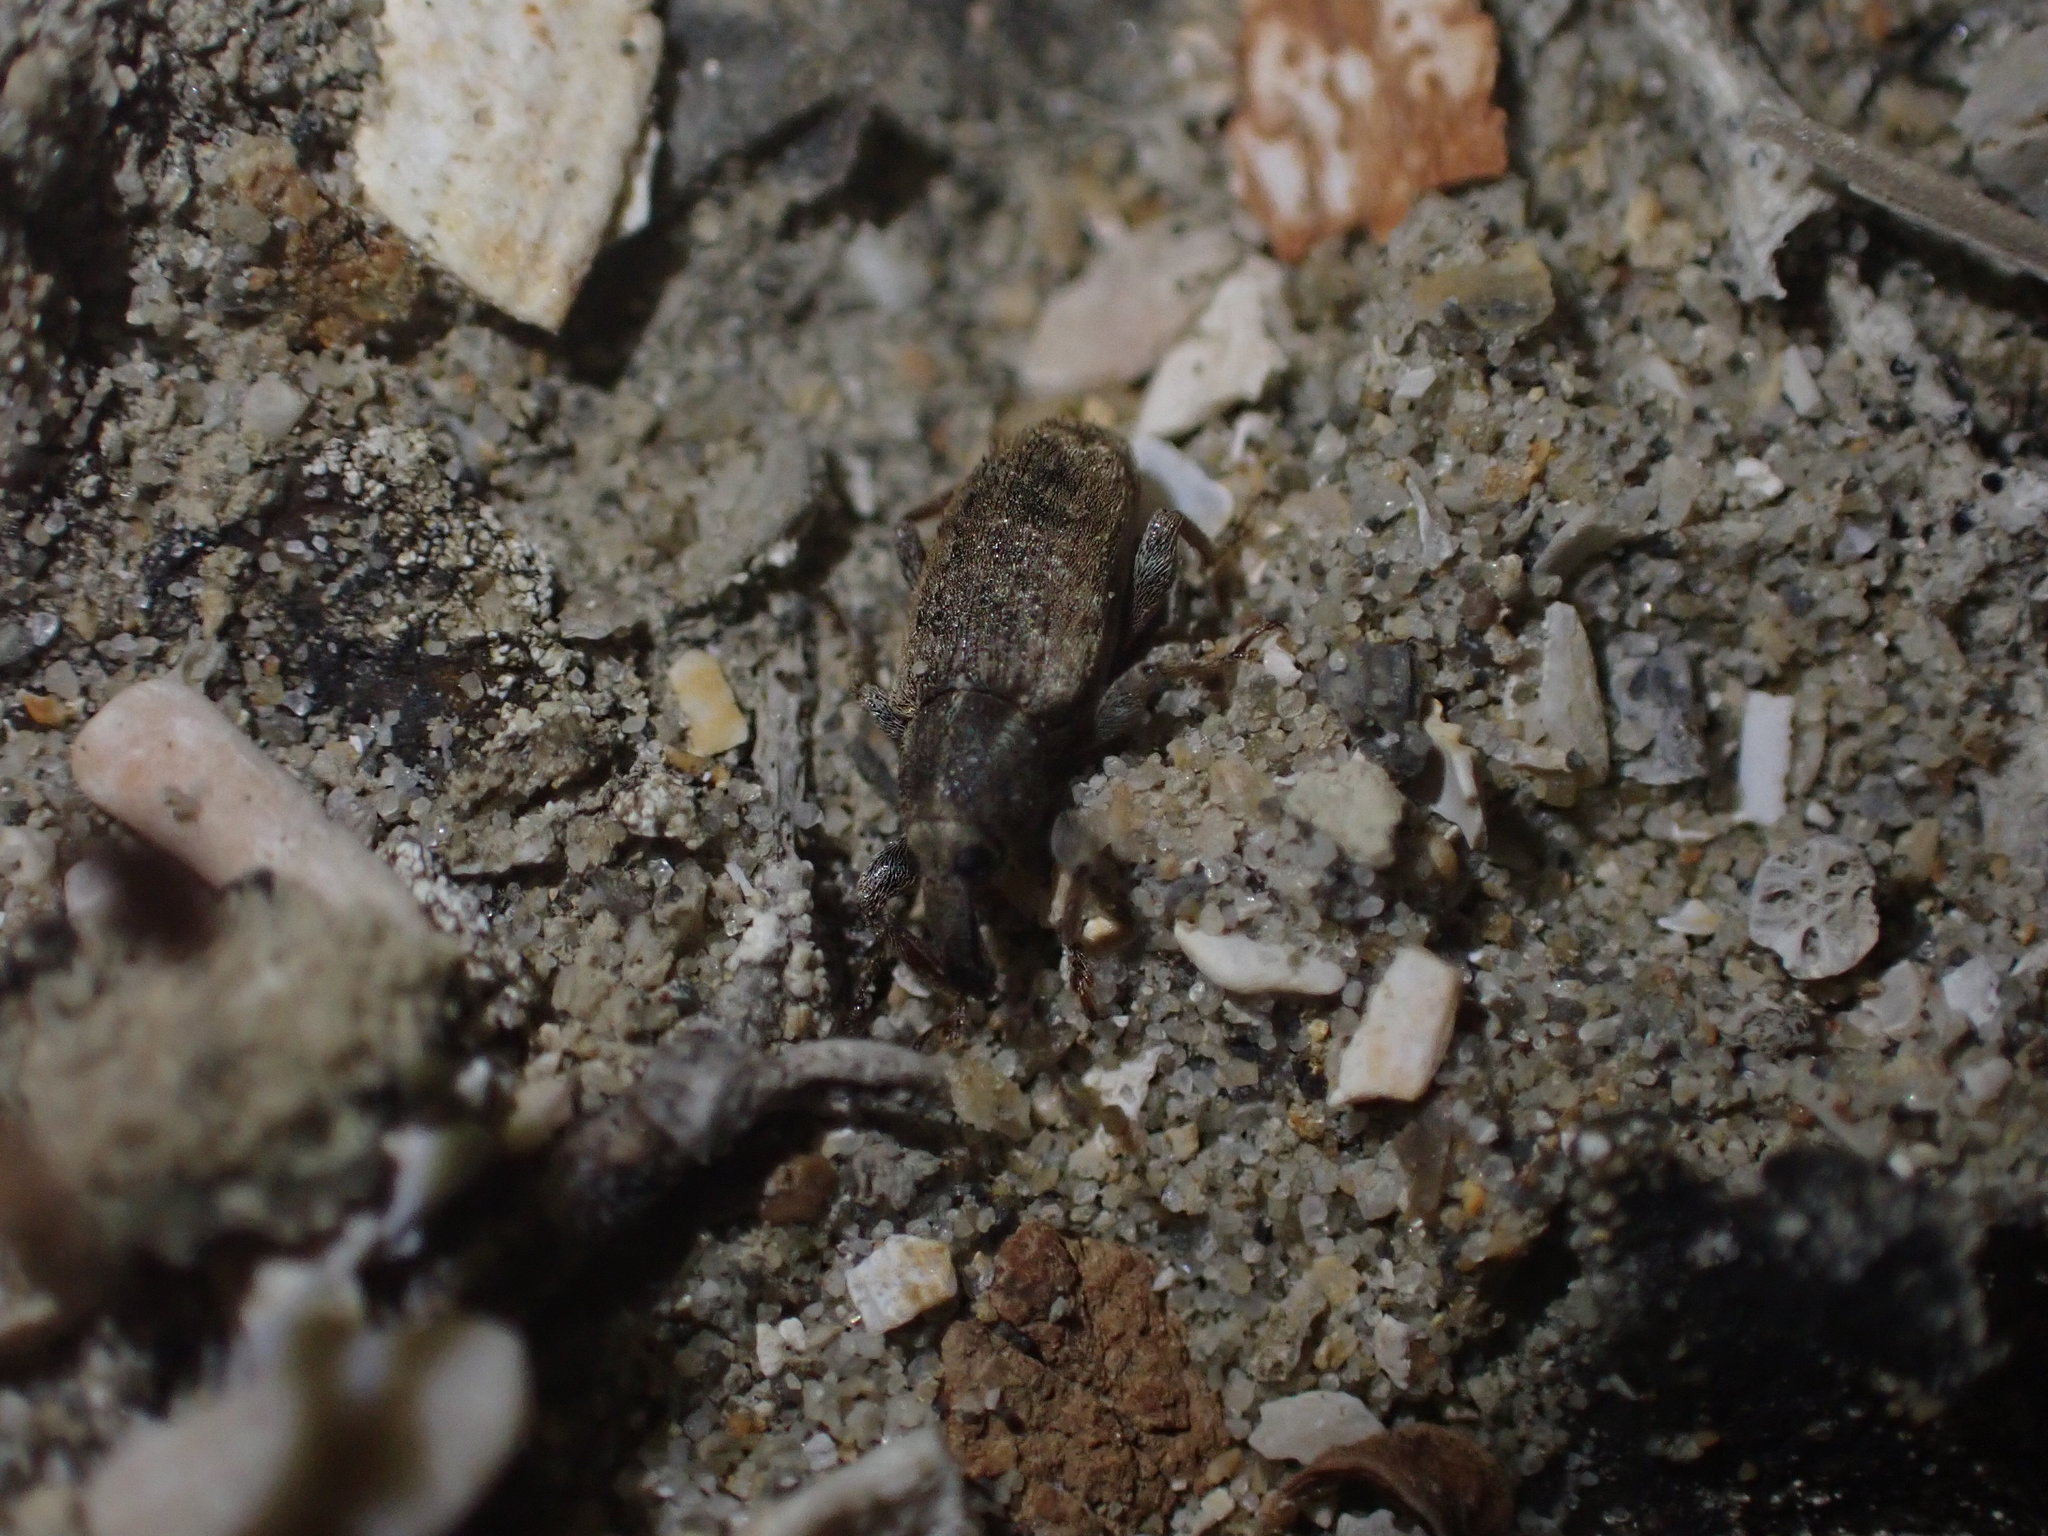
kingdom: Animalia
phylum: Arthropoda
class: Insecta
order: Coleoptera
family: Curculionidae
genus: Steriphus
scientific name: Steriphus diversipes
